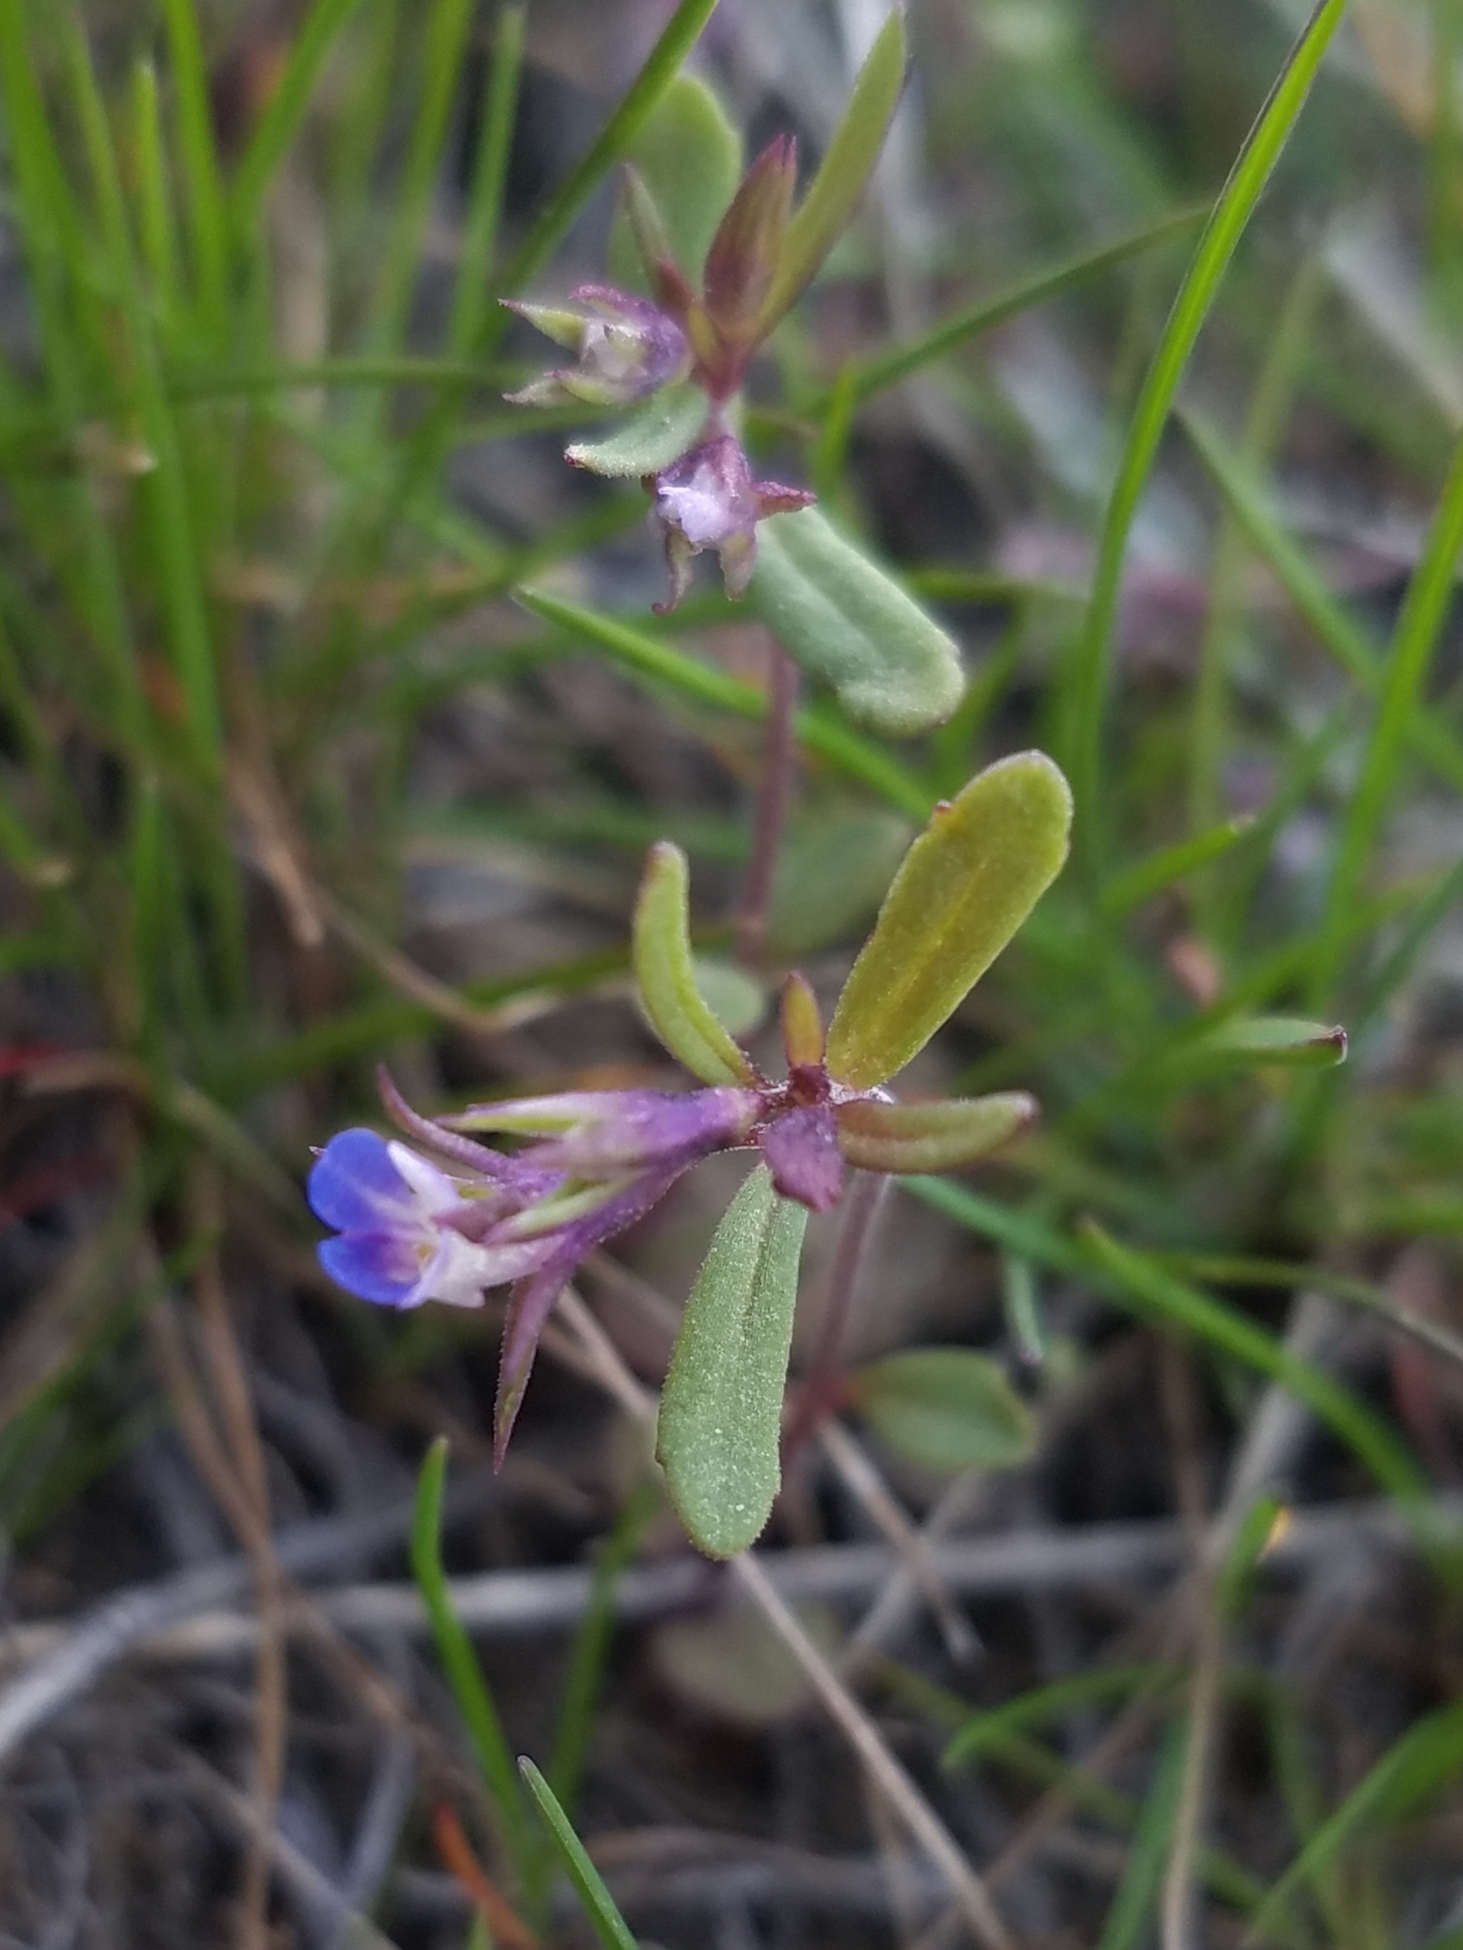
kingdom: Plantae
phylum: Tracheophyta
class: Magnoliopsida
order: Lamiales
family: Plantaginaceae
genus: Collinsia
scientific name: Collinsia parviflora
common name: Blue-lips
